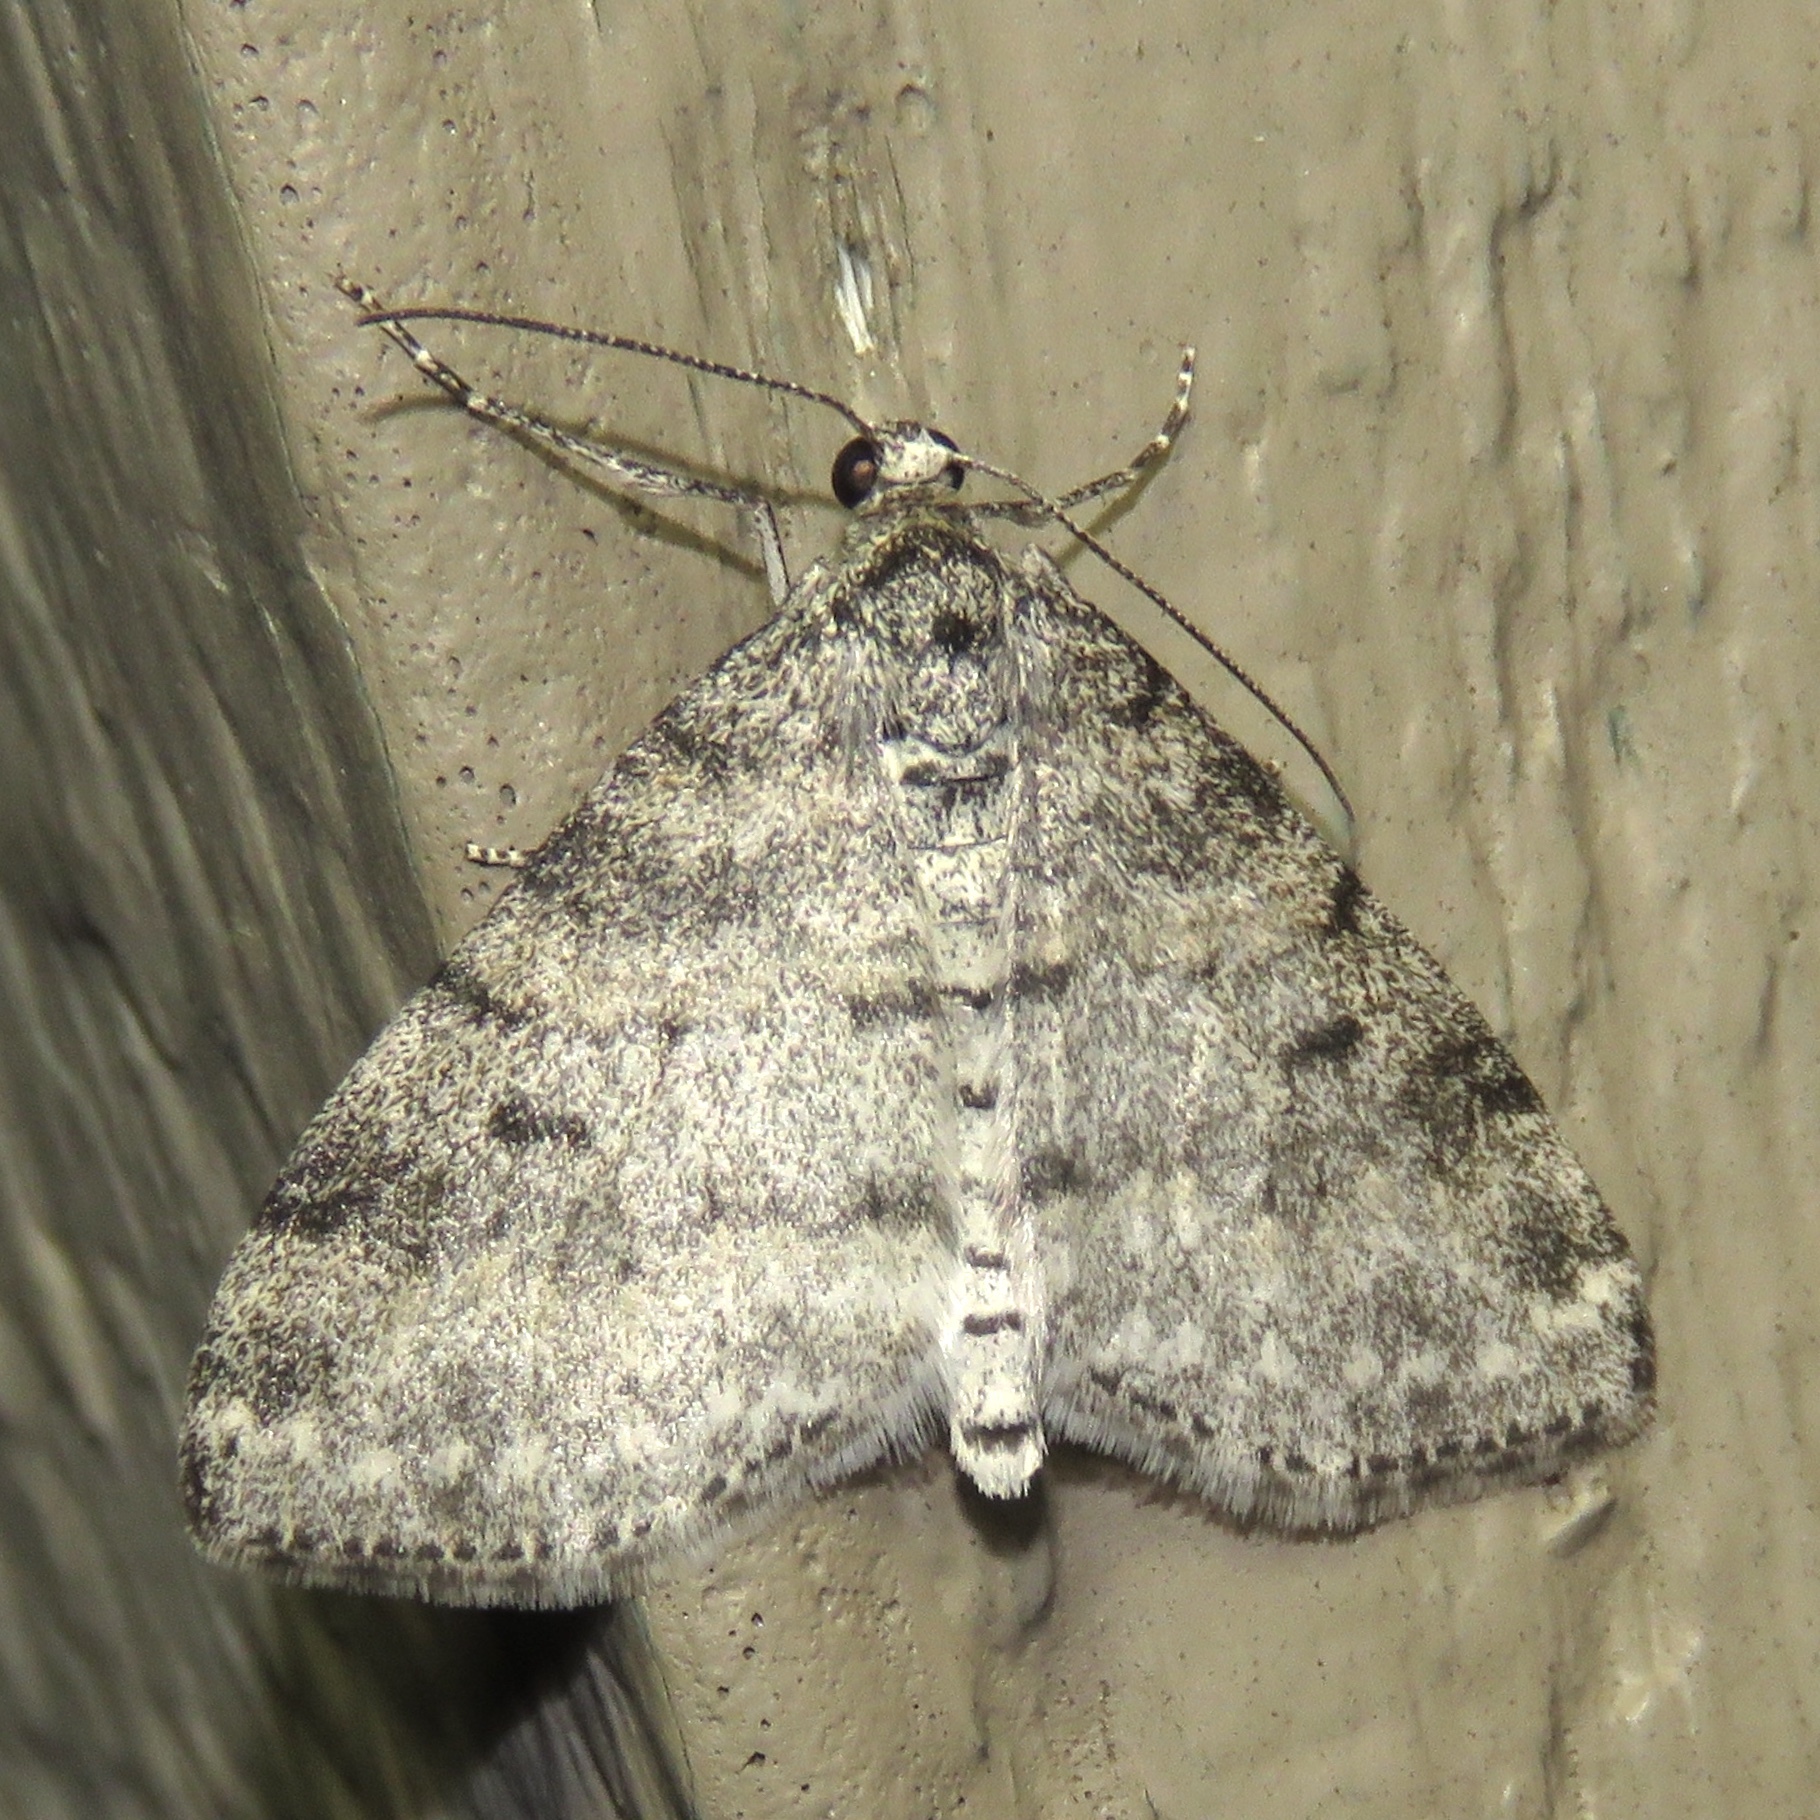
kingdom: Animalia
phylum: Arthropoda
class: Insecta
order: Lepidoptera
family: Geometridae
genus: Lobophora
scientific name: Lobophora nivigerata
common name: Powdered bigwing
